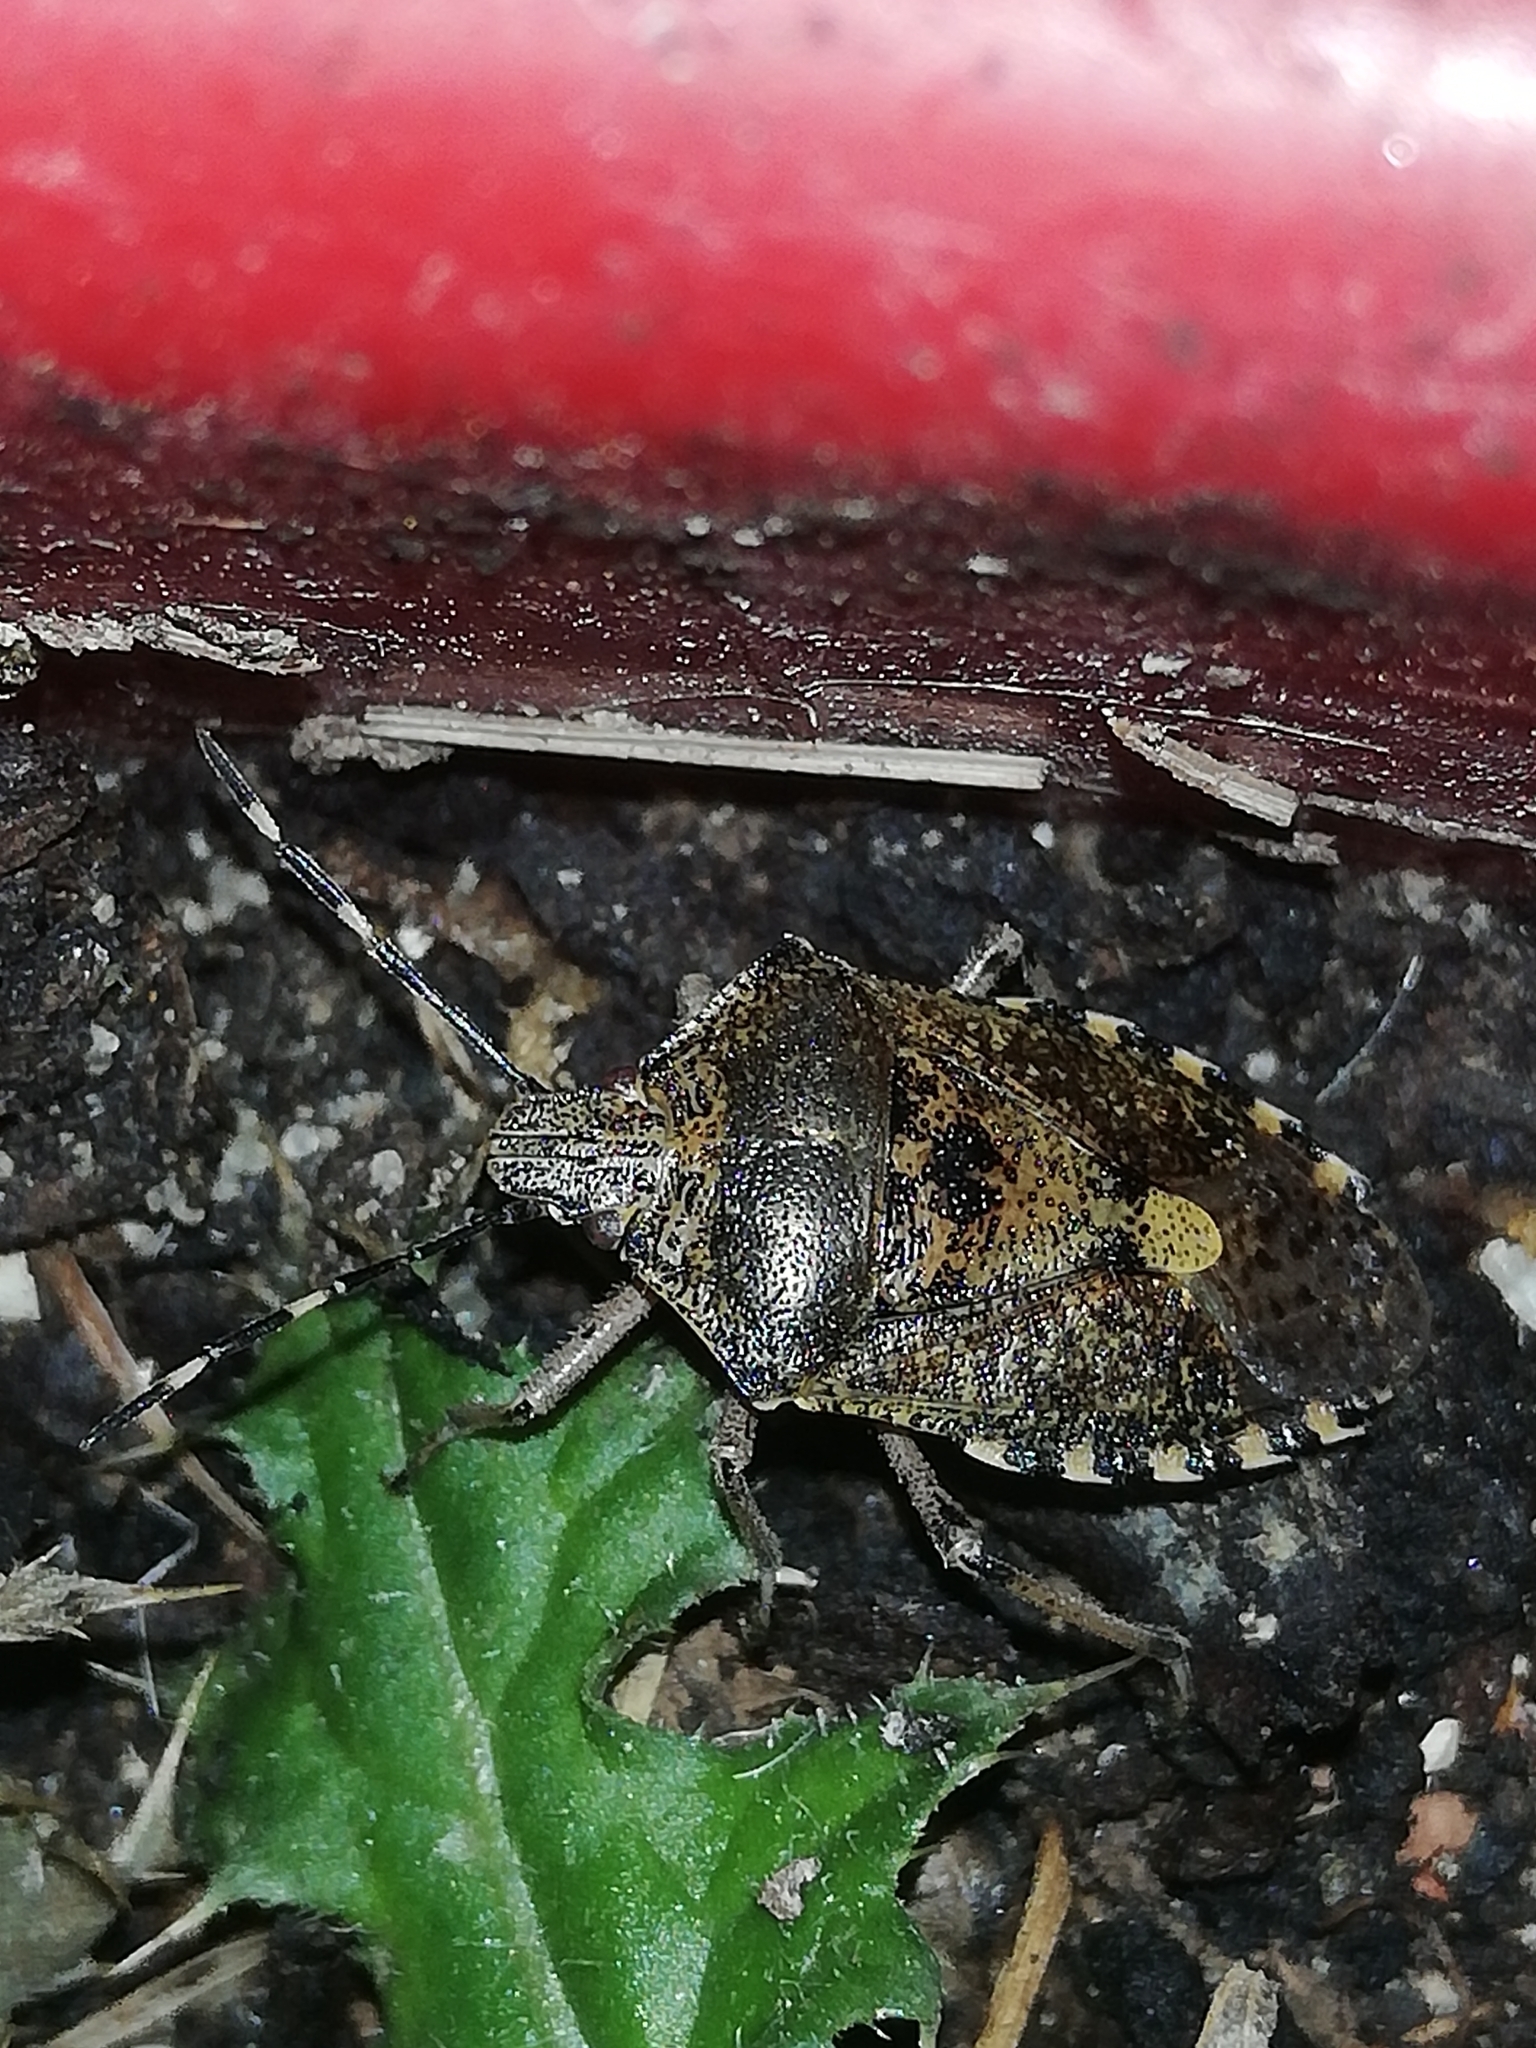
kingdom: Animalia
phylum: Arthropoda
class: Insecta
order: Hemiptera
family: Pentatomidae
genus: Rhaphigaster
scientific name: Rhaphigaster nebulosa
